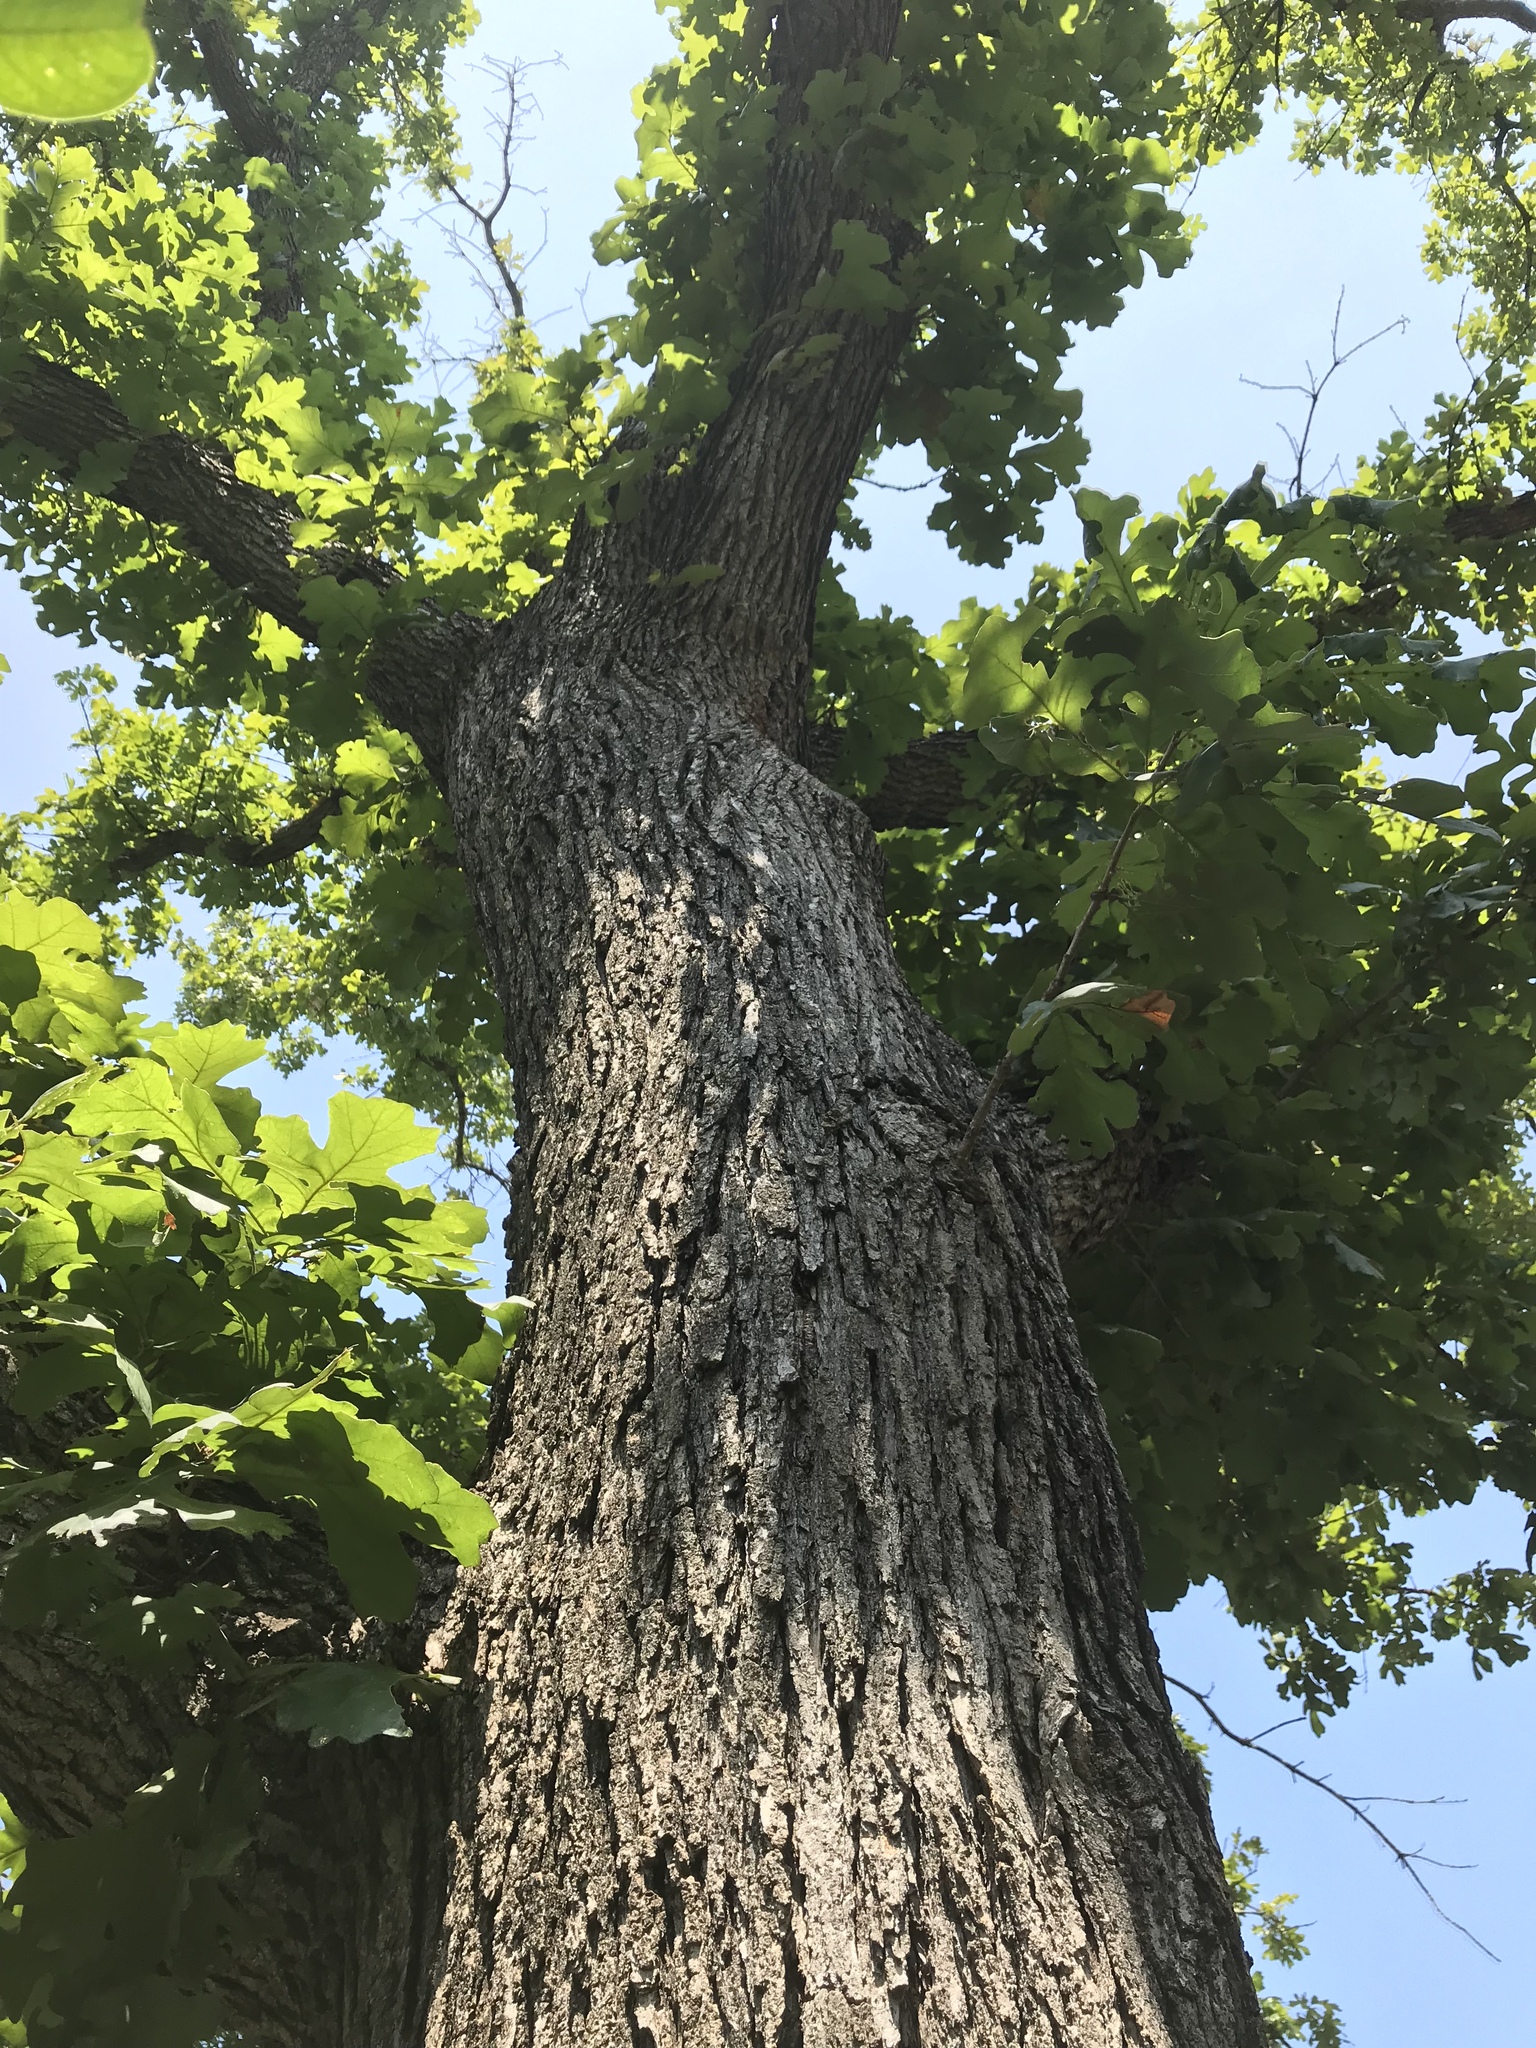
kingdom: Plantae
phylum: Tracheophyta
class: Magnoliopsida
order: Fagales
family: Fagaceae
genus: Quercus
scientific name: Quercus macrocarpa
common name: Bur oak
